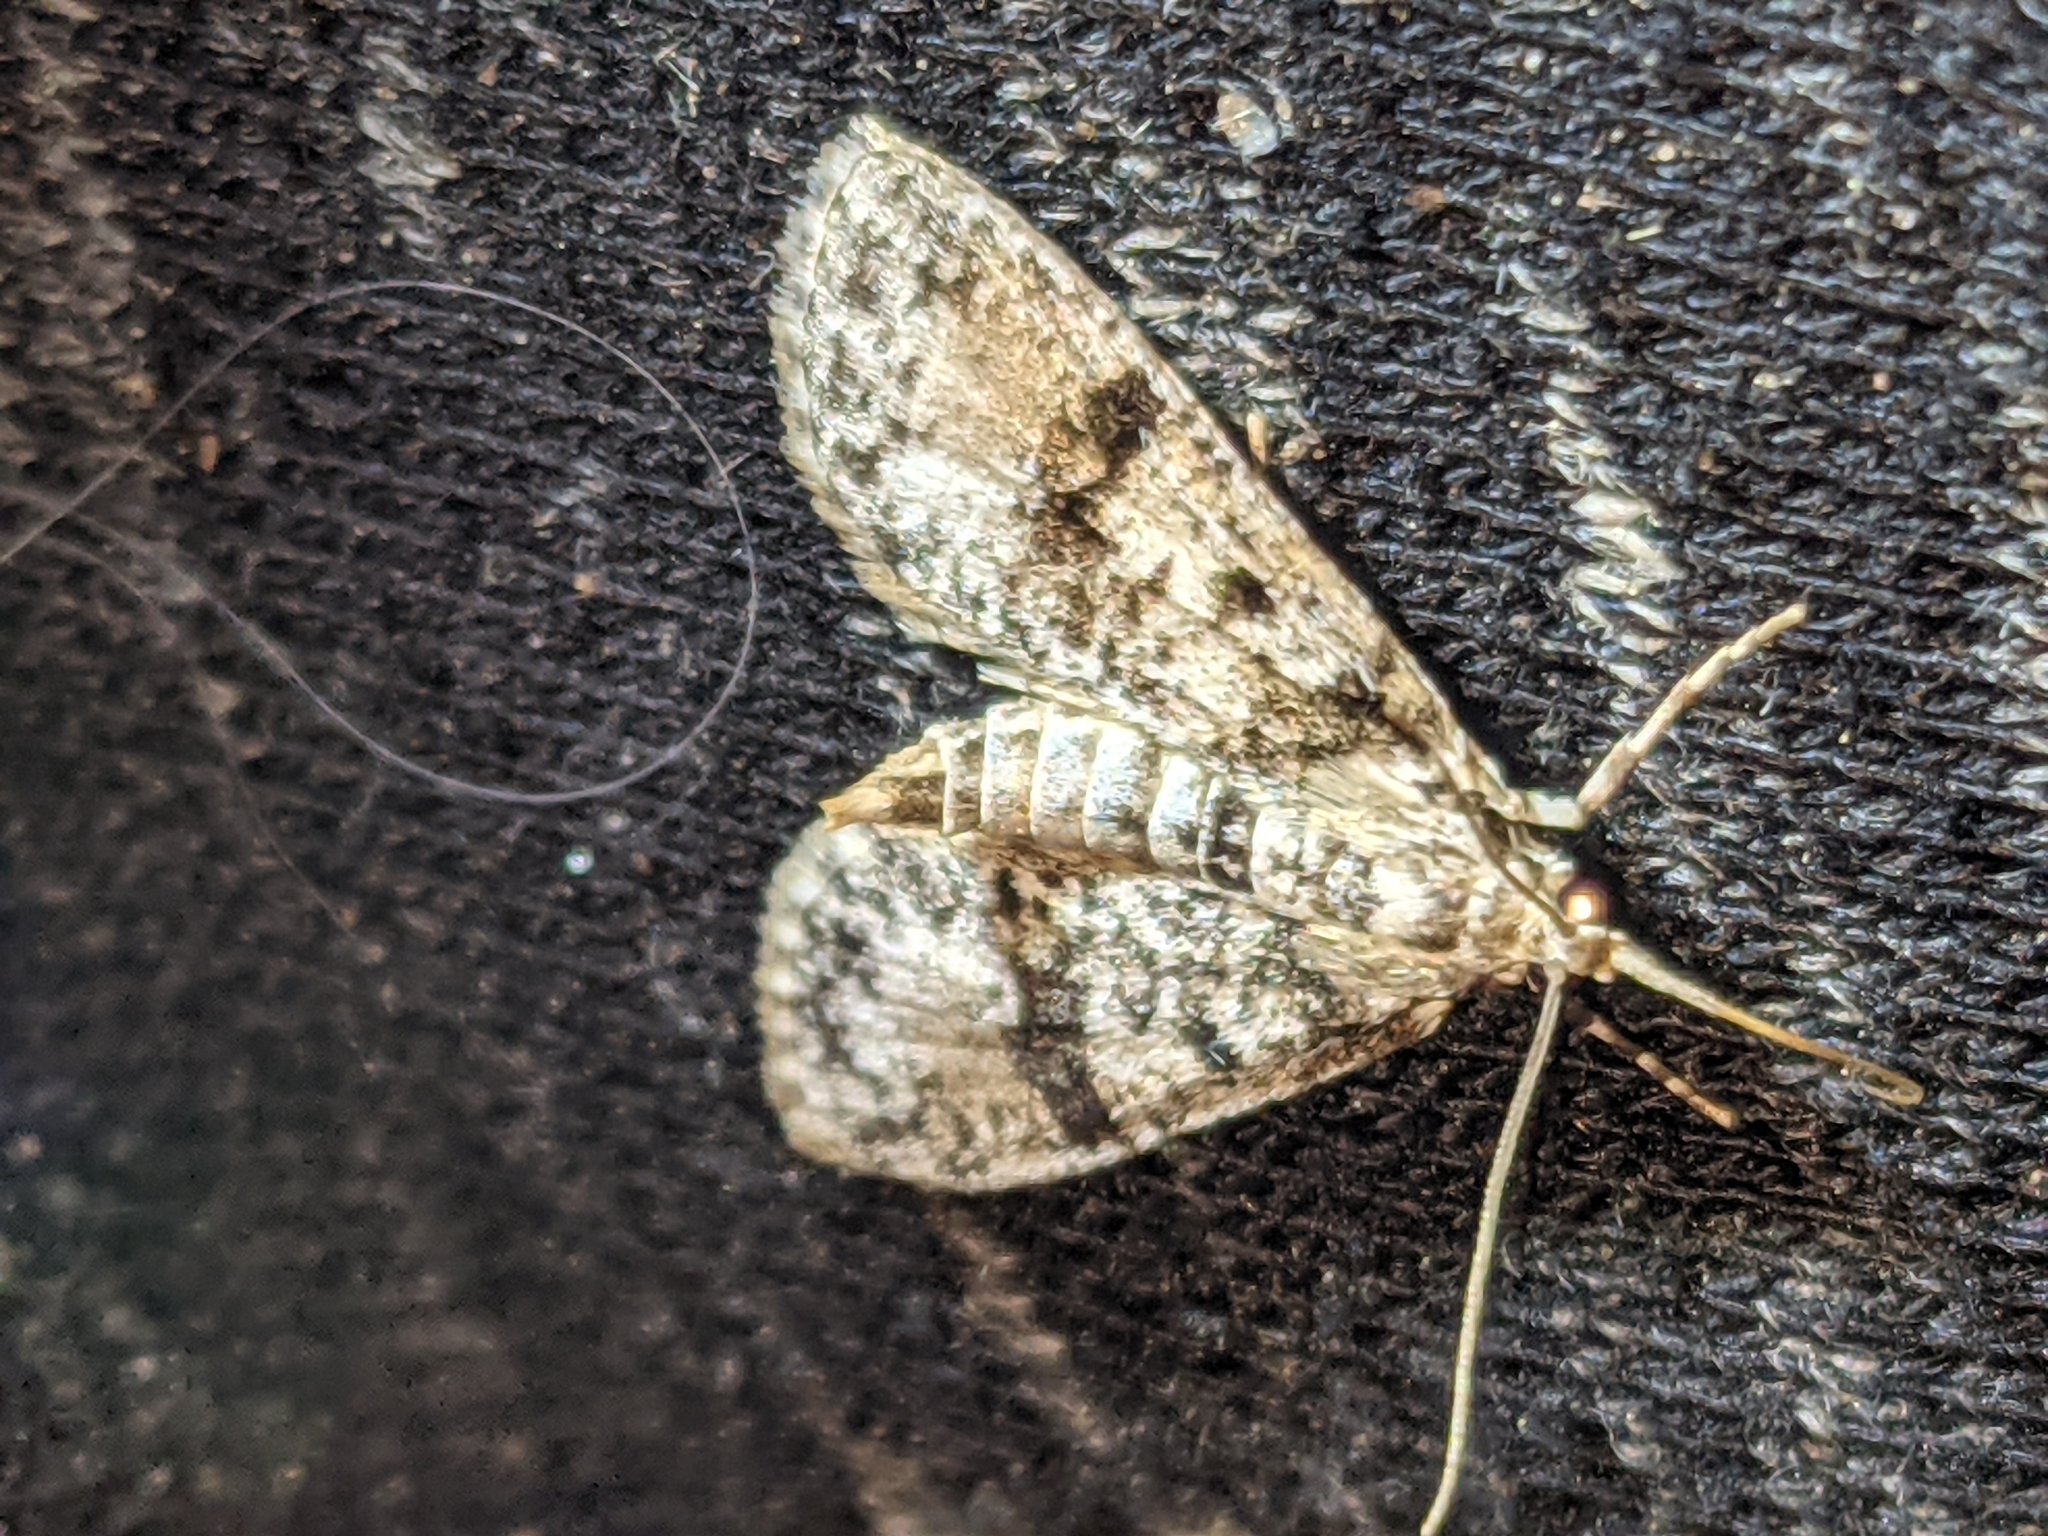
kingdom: Animalia
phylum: Arthropoda
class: Insecta
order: Lepidoptera
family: Crambidae
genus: Palpita
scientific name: Palpita magniferalis
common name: Splendid palpita moth
